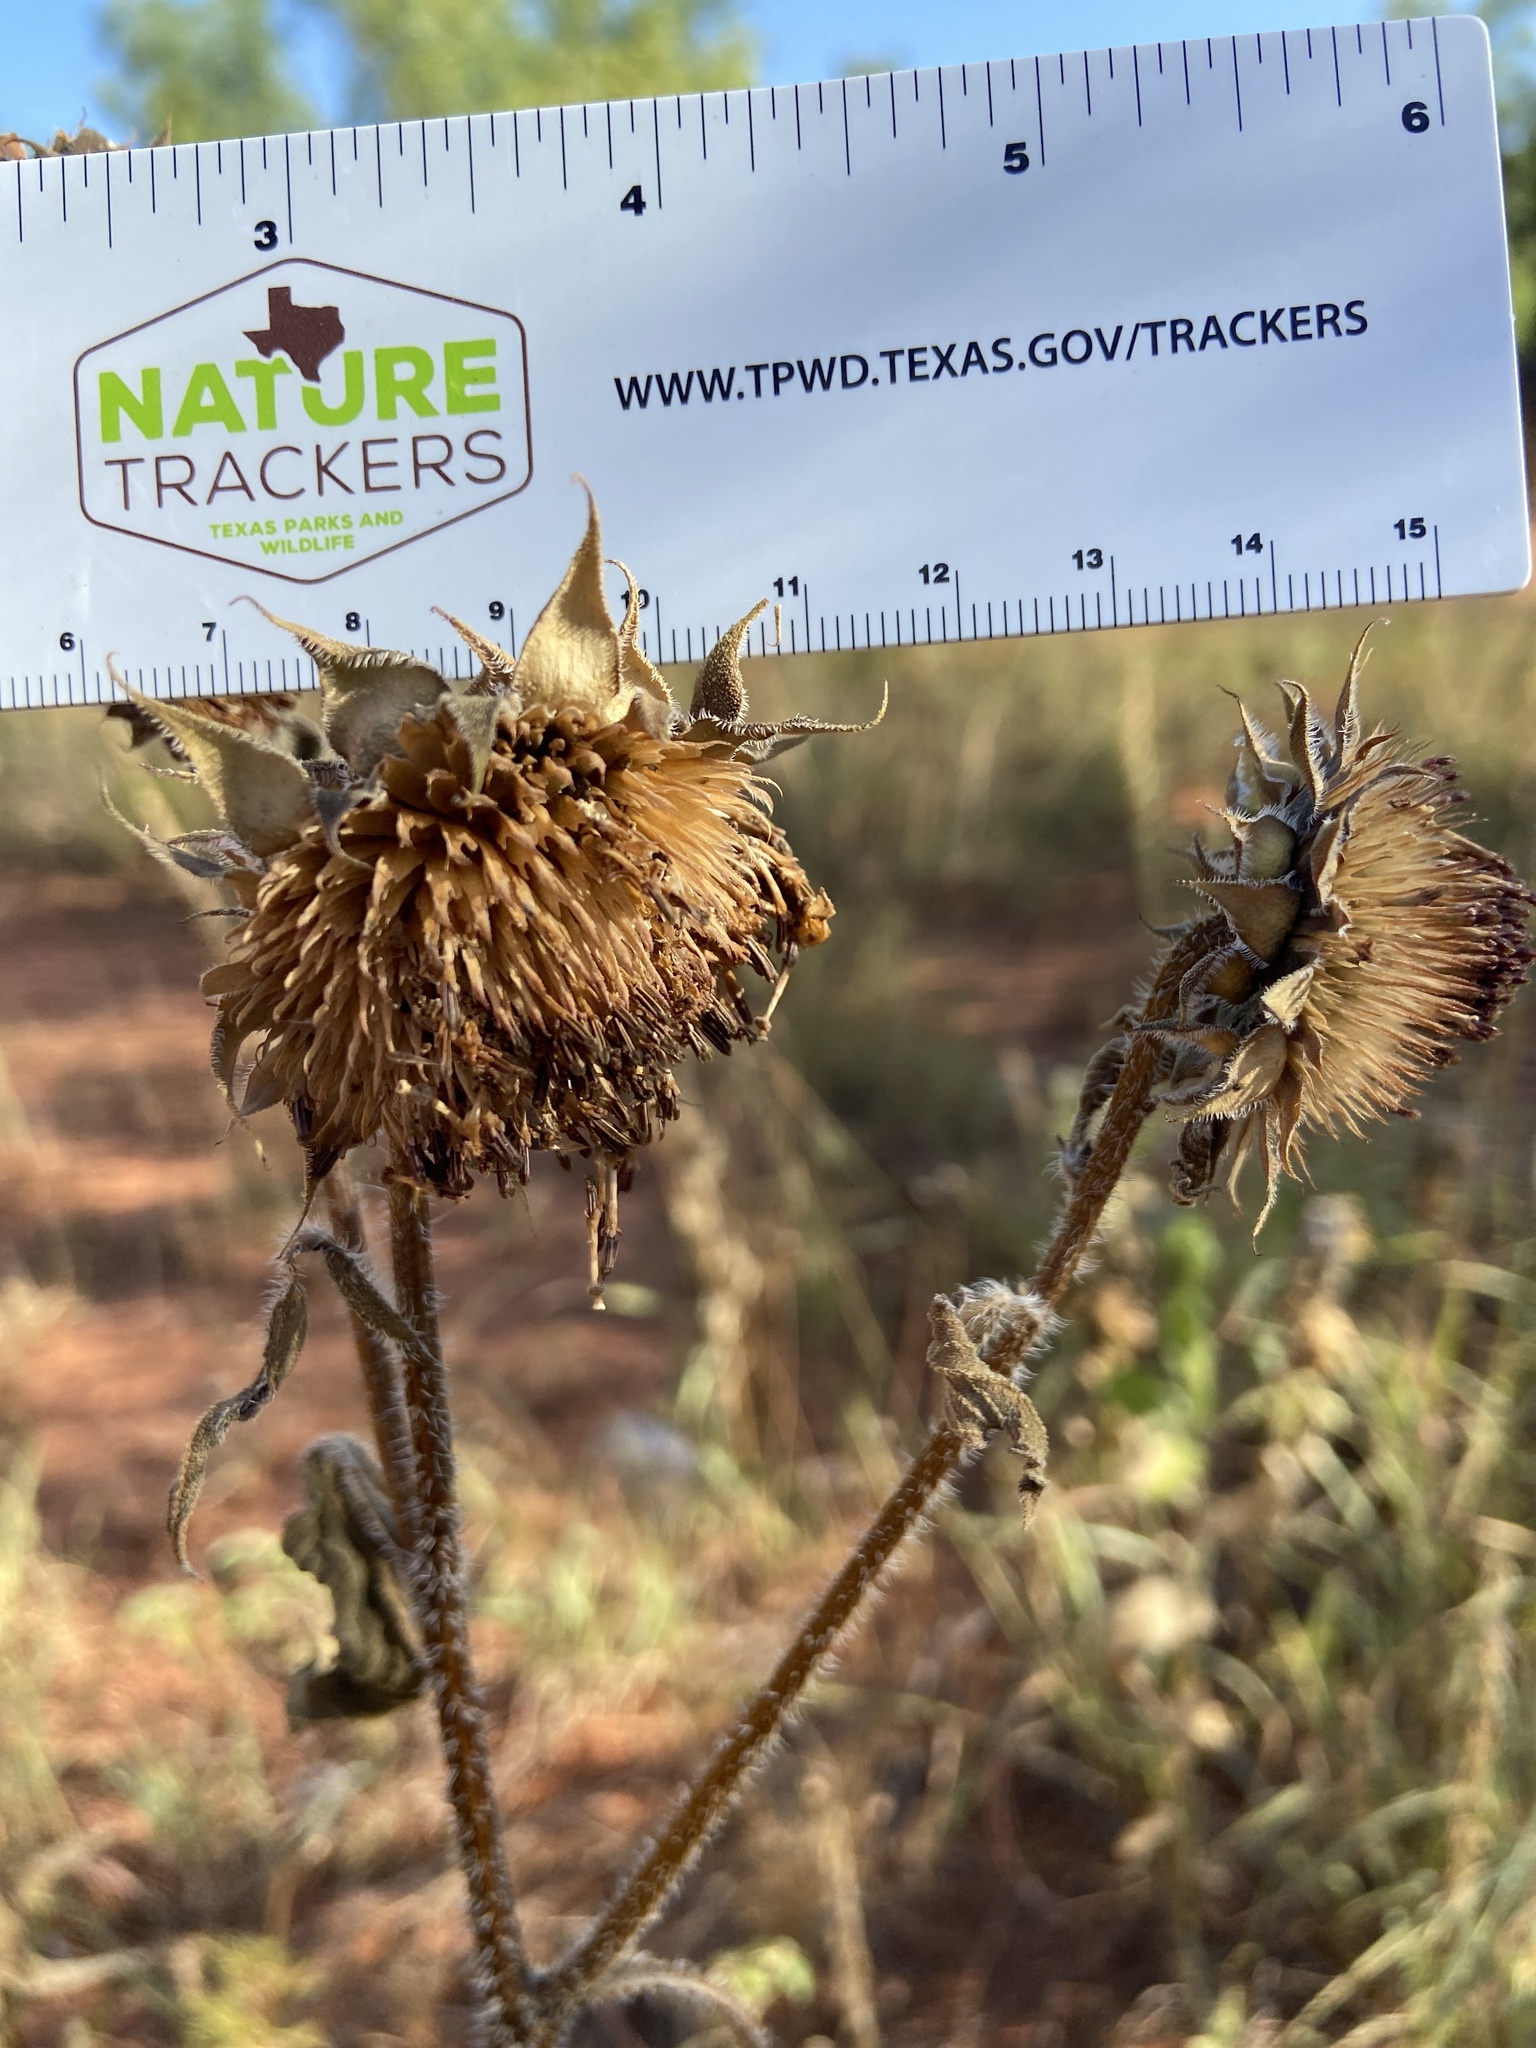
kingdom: Plantae
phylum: Tracheophyta
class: Magnoliopsida
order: Asterales
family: Asteraceae
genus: Helianthus
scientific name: Helianthus annuus
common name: Sunflower
